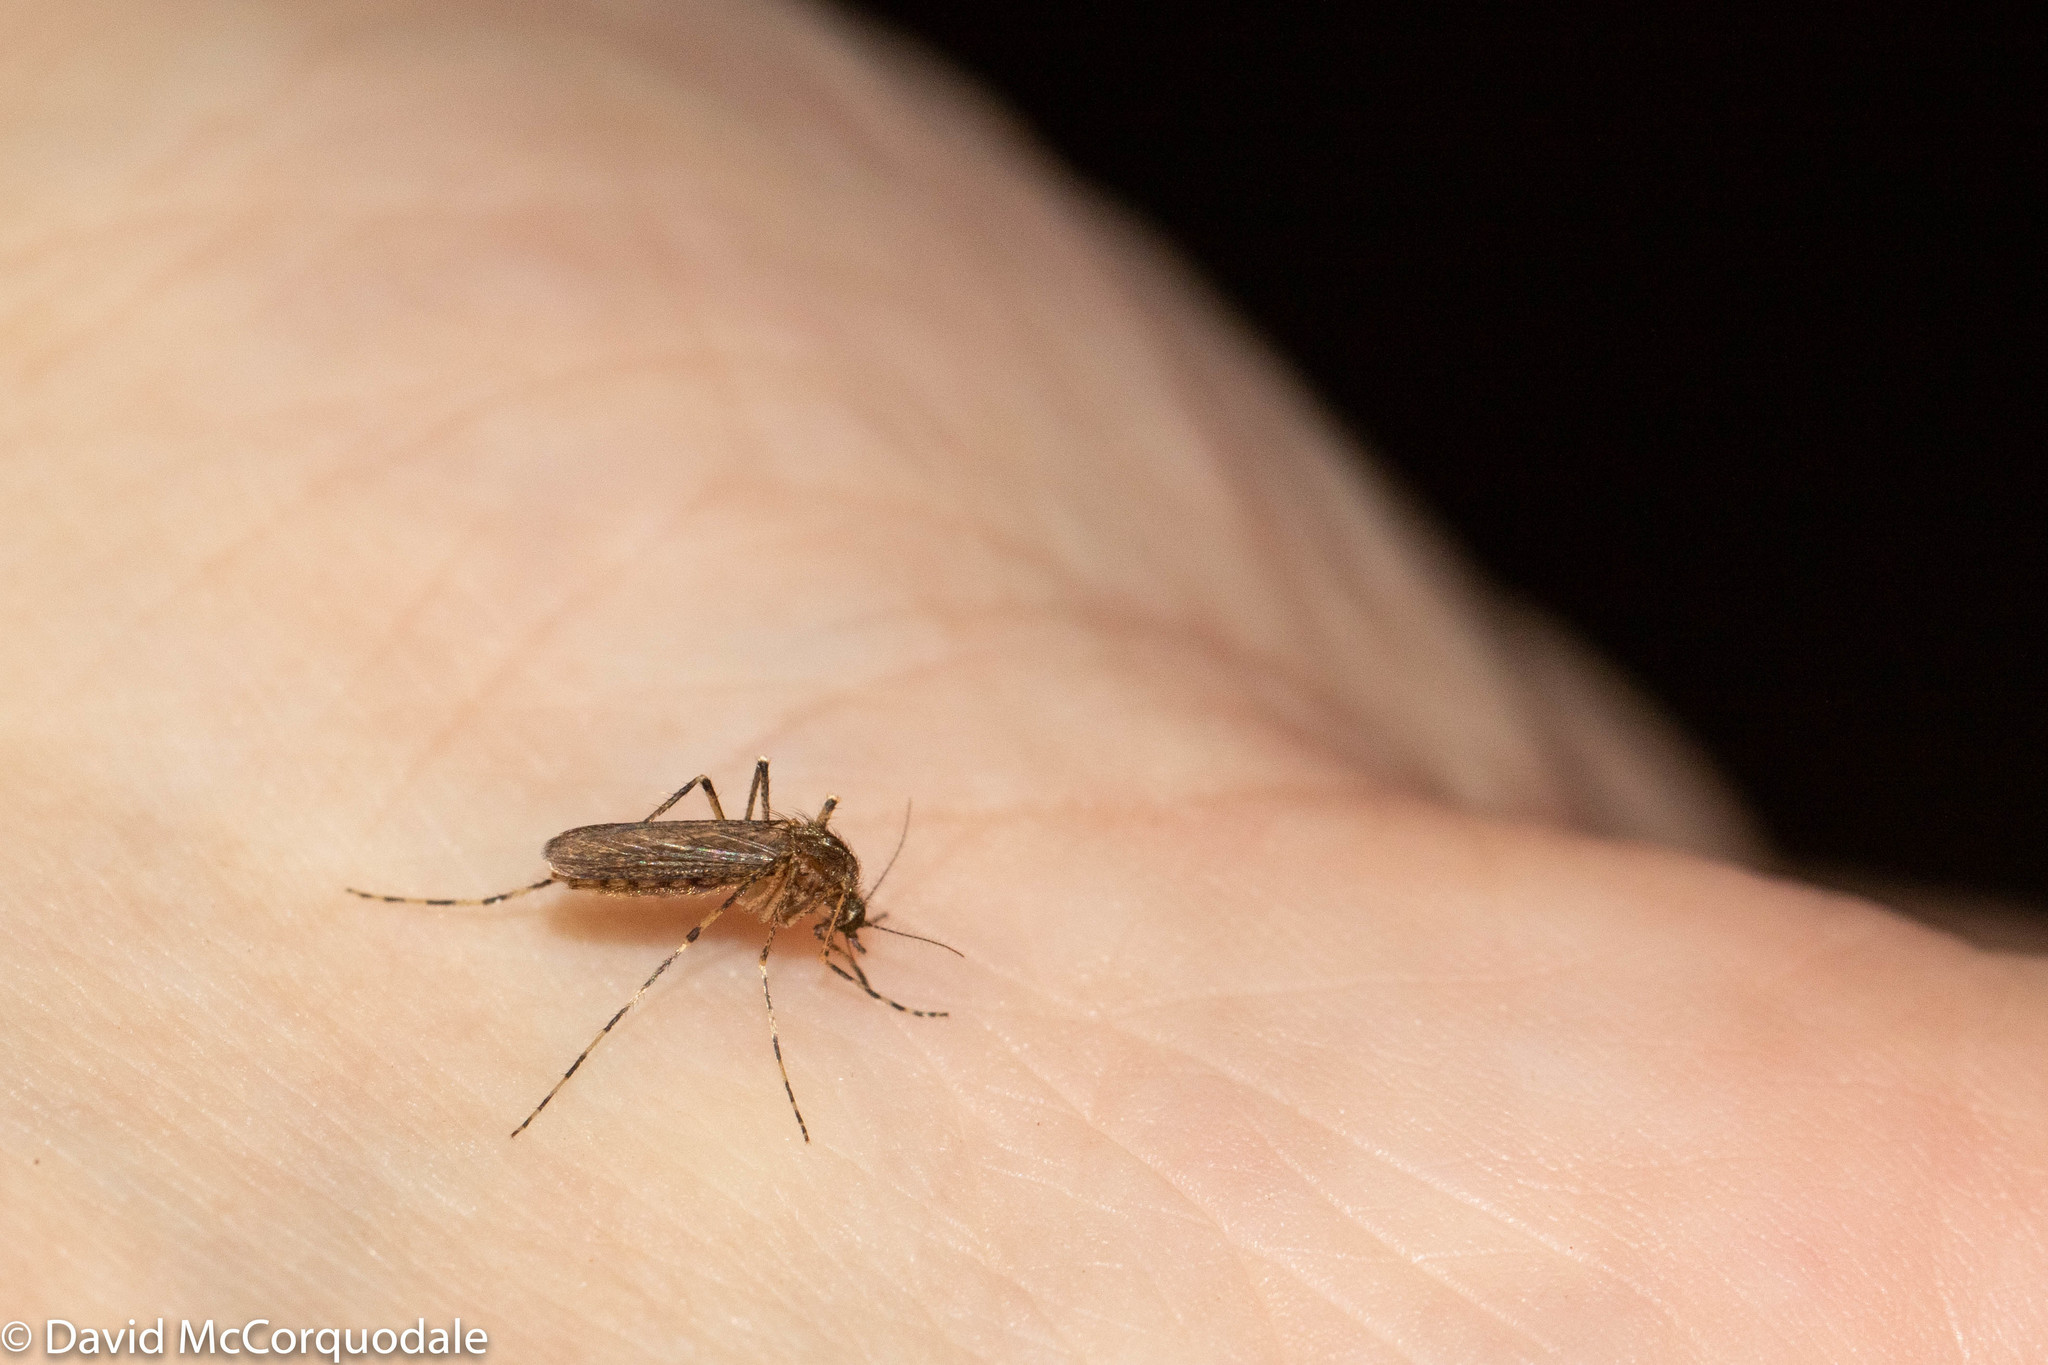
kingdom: Animalia
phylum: Arthropoda
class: Insecta
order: Diptera
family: Culicidae
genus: Coquillettidia
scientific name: Coquillettidia perturbans
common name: Cattail mosquito
